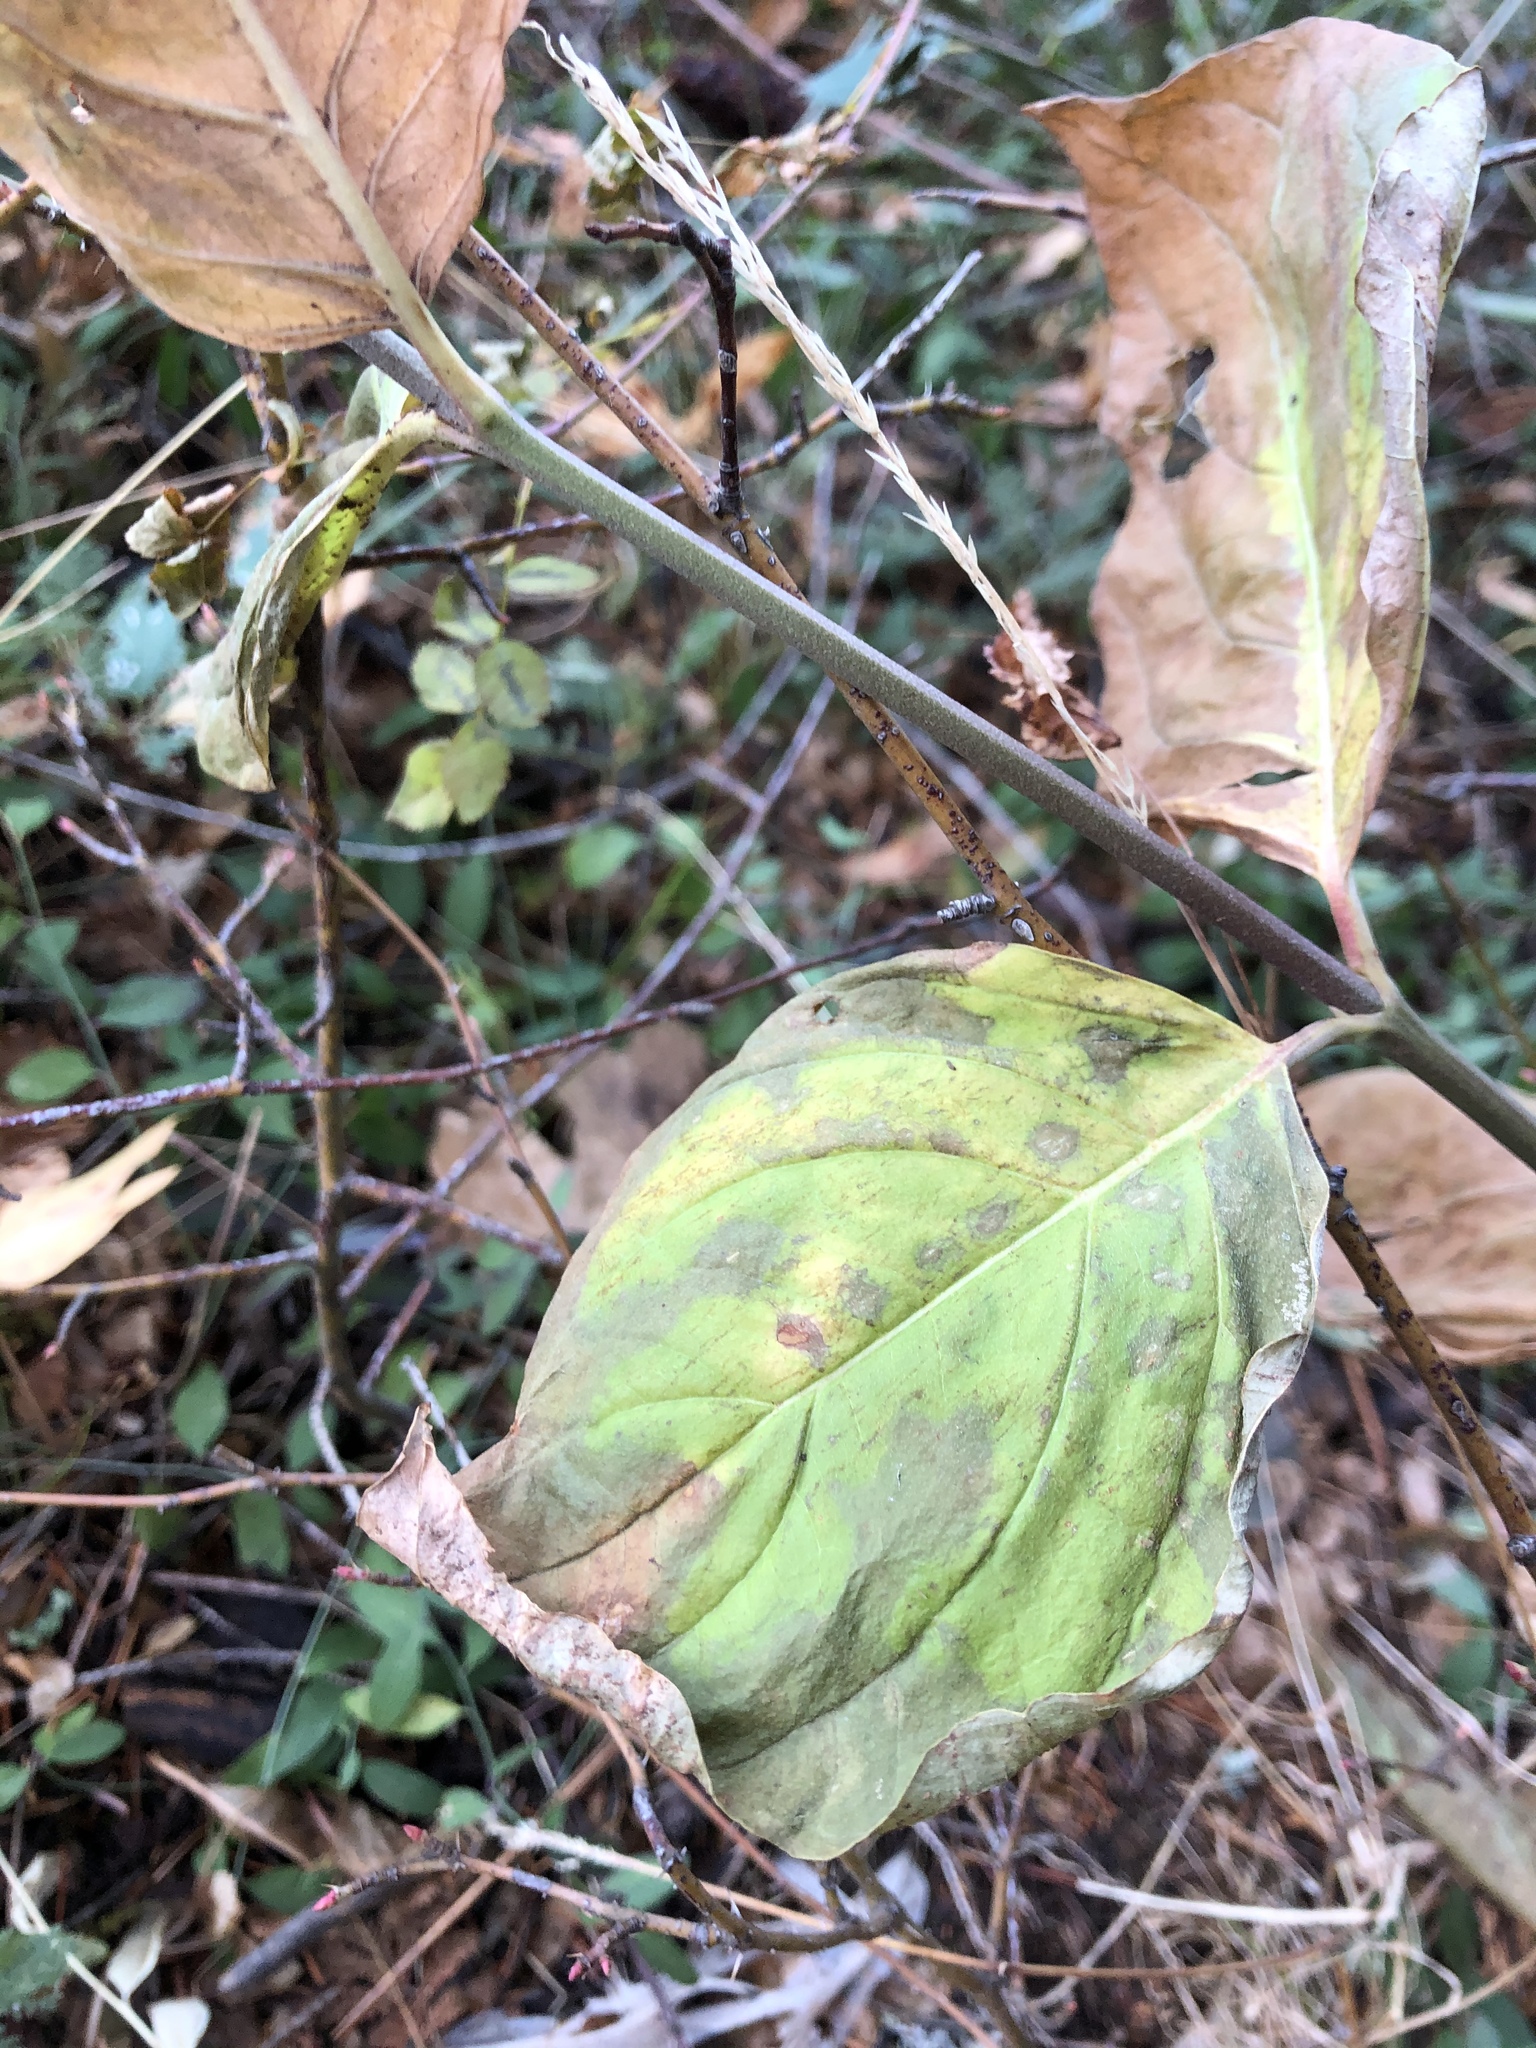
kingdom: Plantae
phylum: Tracheophyta
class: Magnoliopsida
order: Cornales
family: Cornaceae
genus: Cornus
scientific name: Cornus nuttallii
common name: Pacific dogwood
